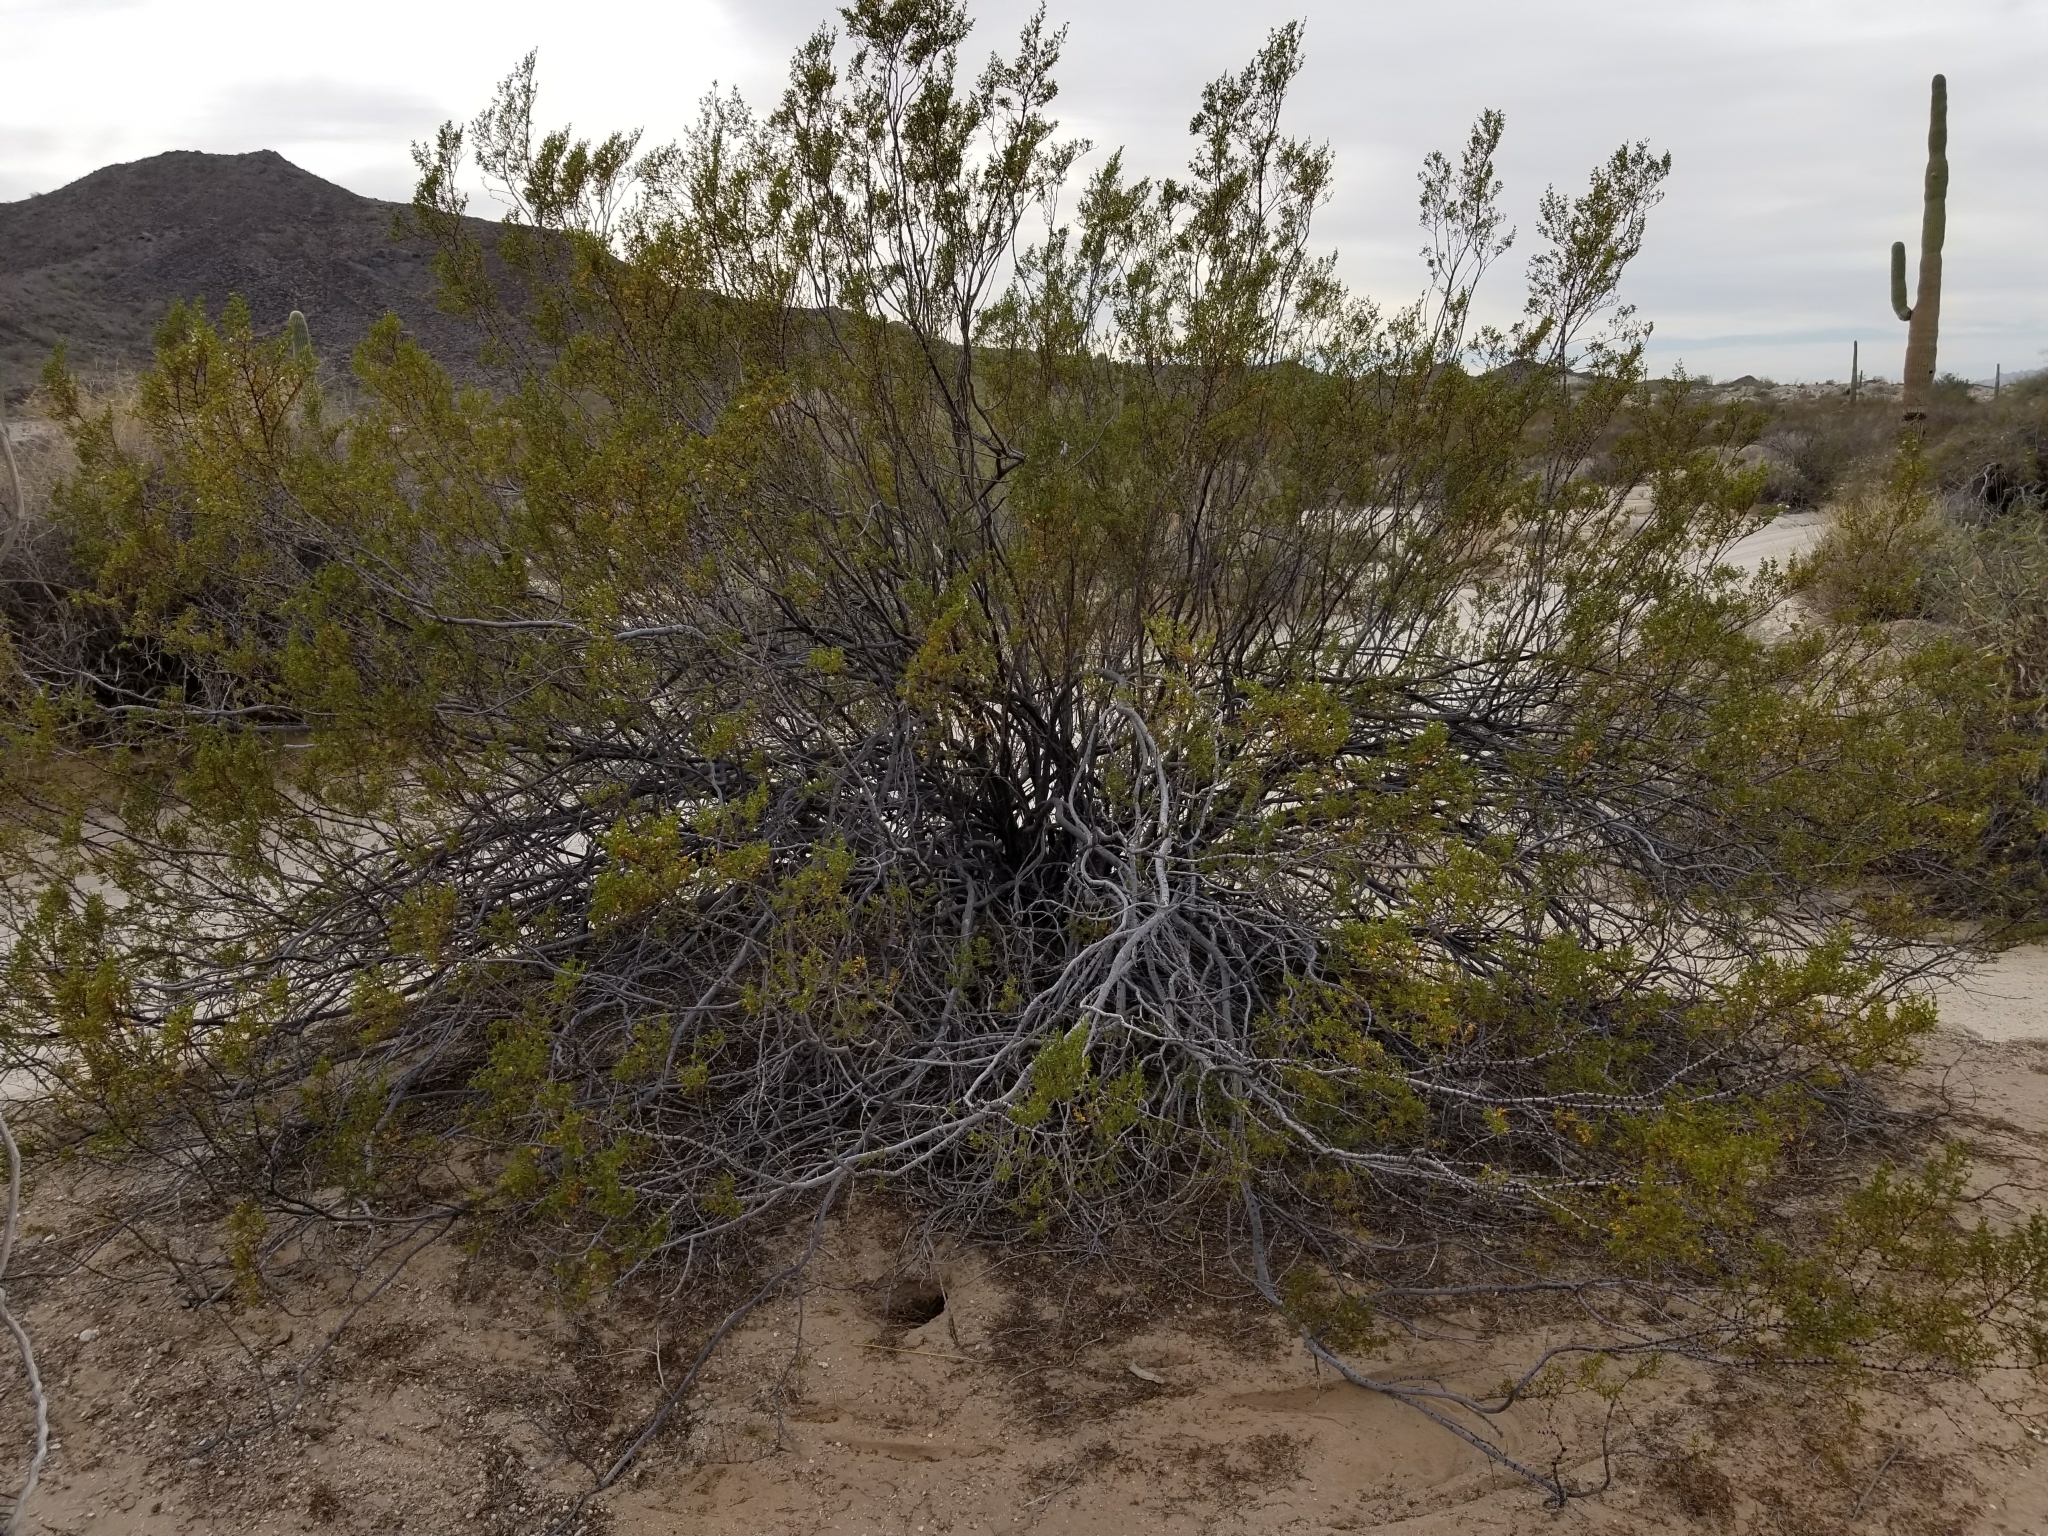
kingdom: Plantae
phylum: Tracheophyta
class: Magnoliopsida
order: Zygophyllales
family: Zygophyllaceae
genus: Larrea
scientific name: Larrea tridentata
